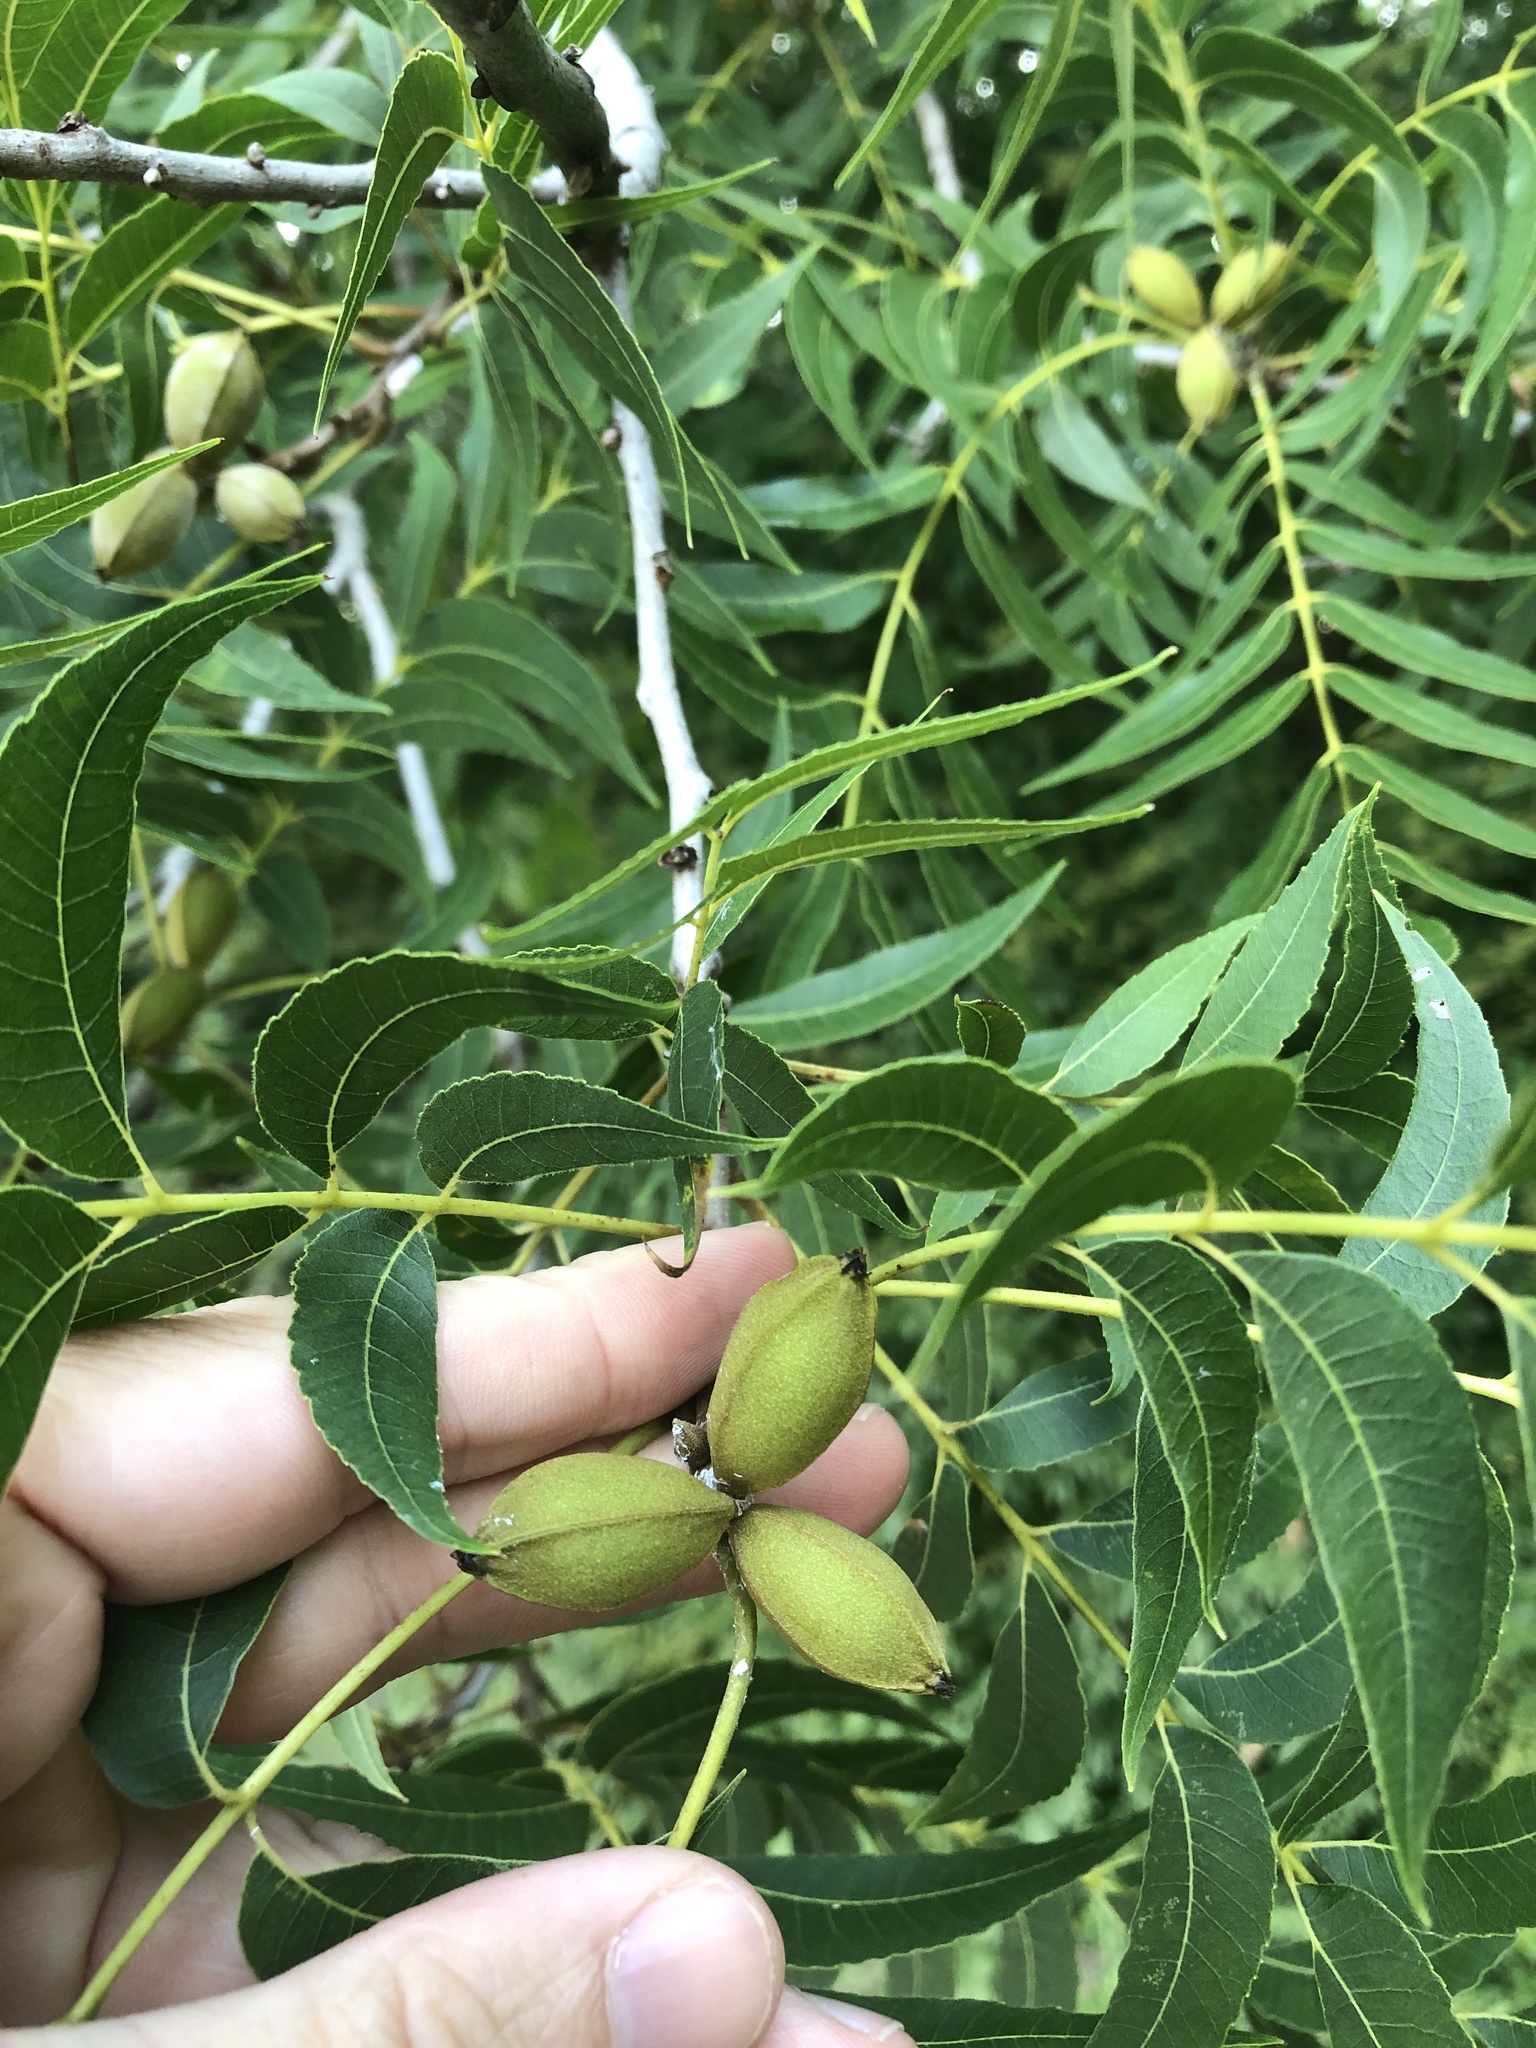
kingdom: Plantae
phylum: Tracheophyta
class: Magnoliopsida
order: Fagales
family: Juglandaceae
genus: Carya
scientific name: Carya illinoinensis
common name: Pecan
